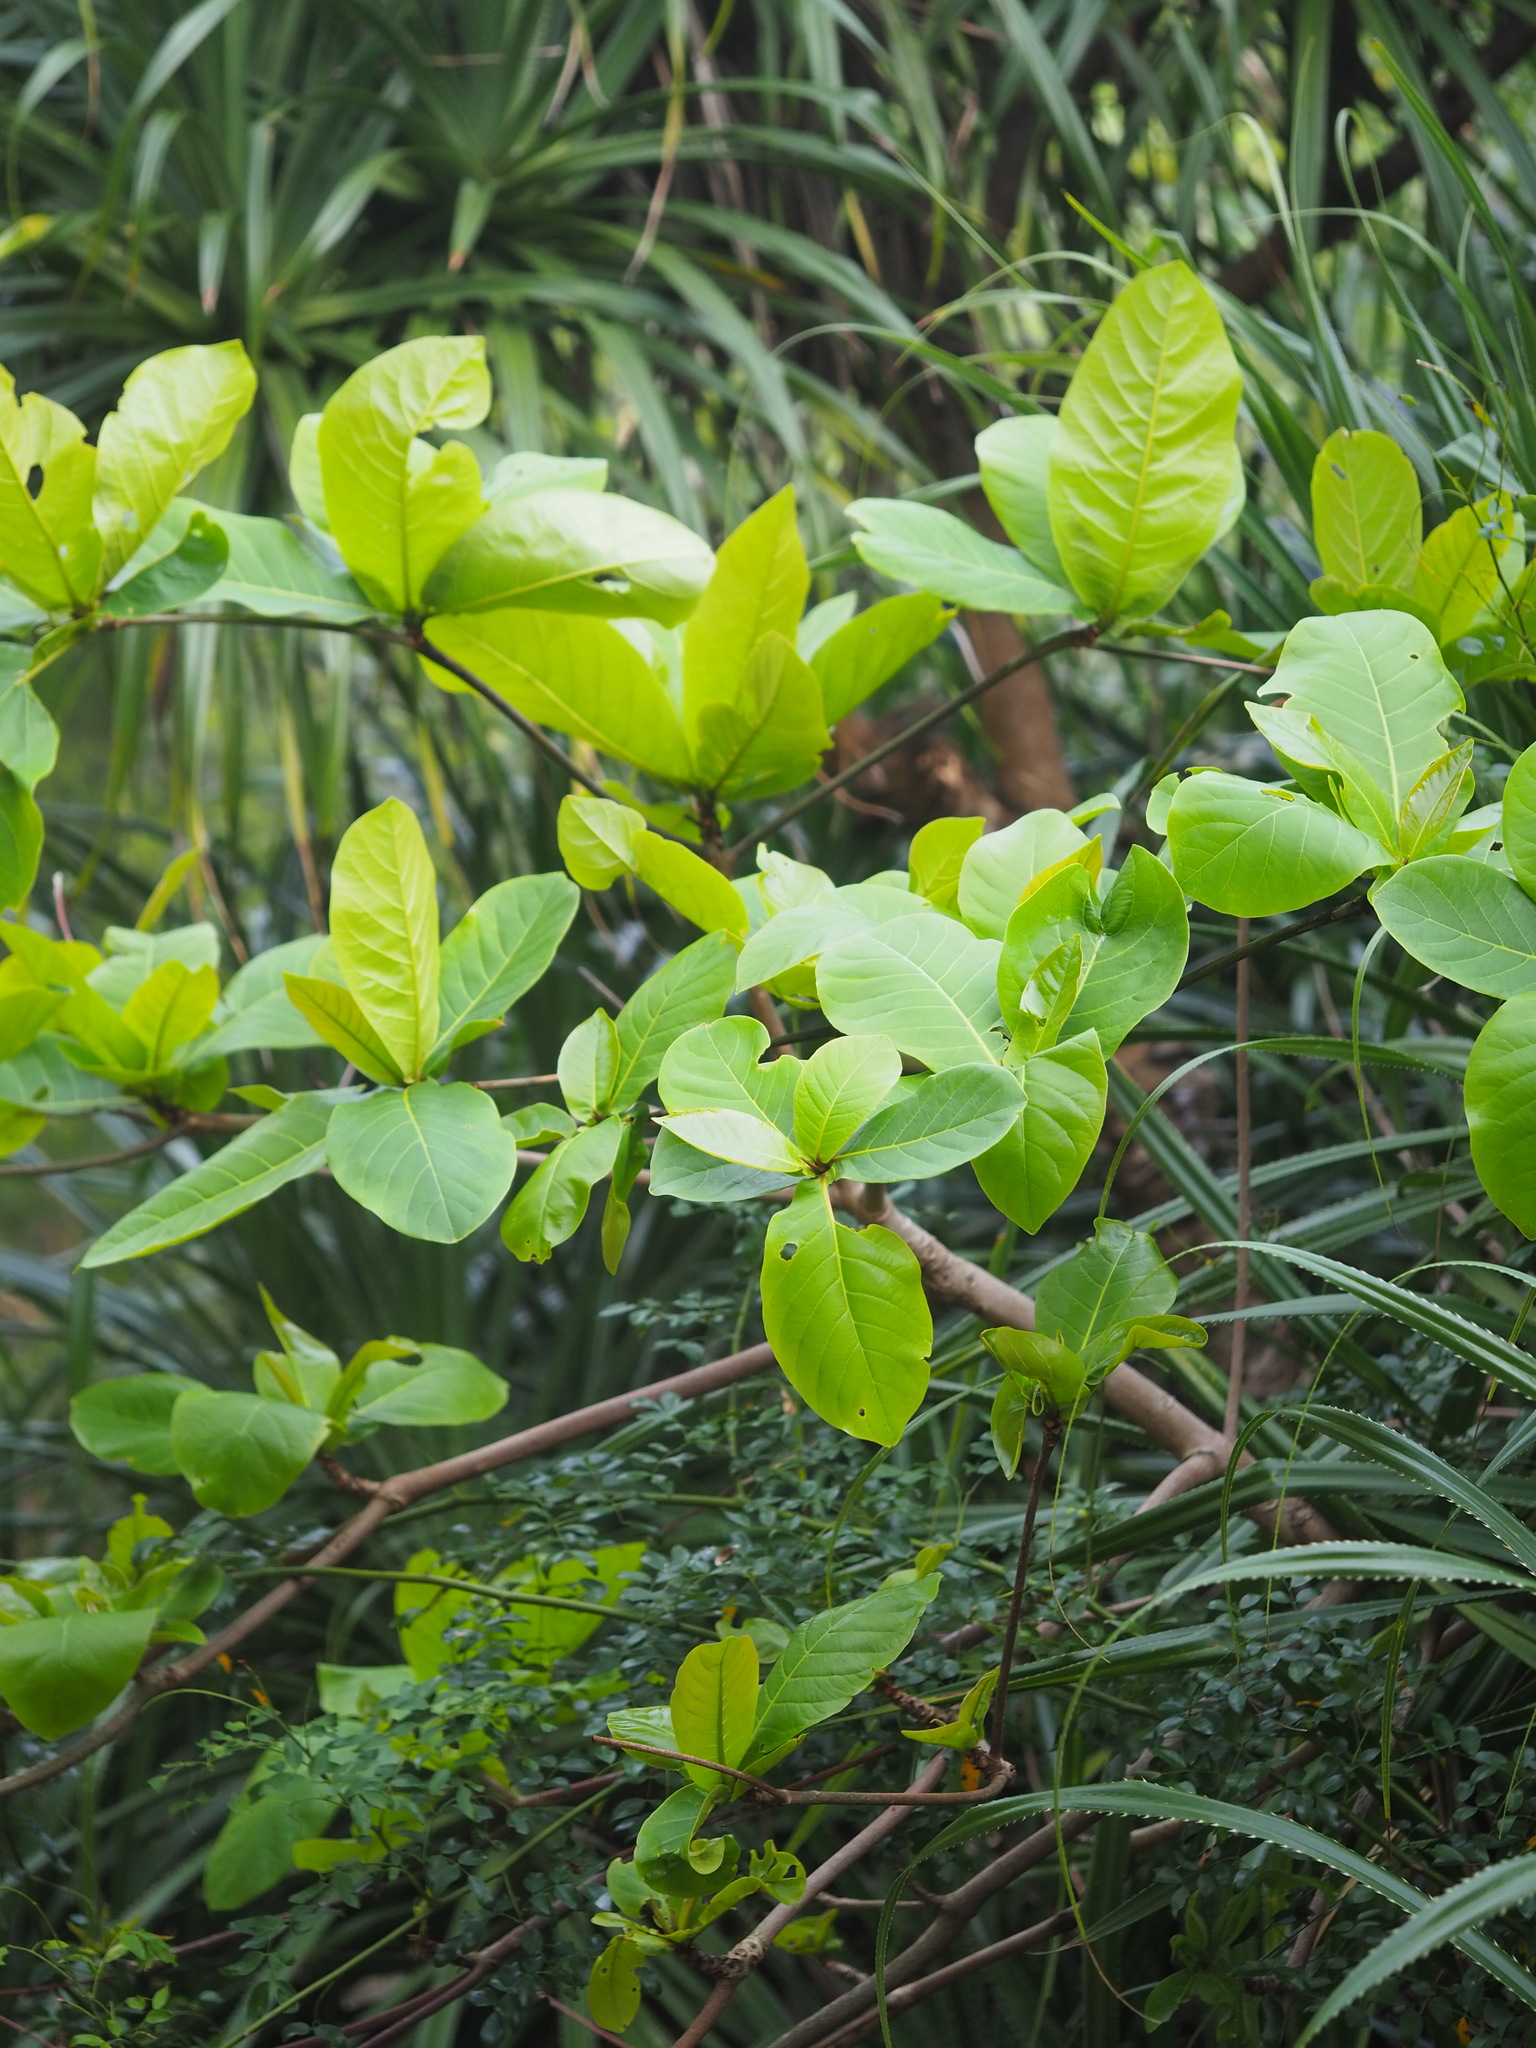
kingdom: Plantae
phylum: Tracheophyta
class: Magnoliopsida
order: Myrtales
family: Combretaceae
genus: Terminalia
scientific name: Terminalia catappa
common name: Tropical almond
